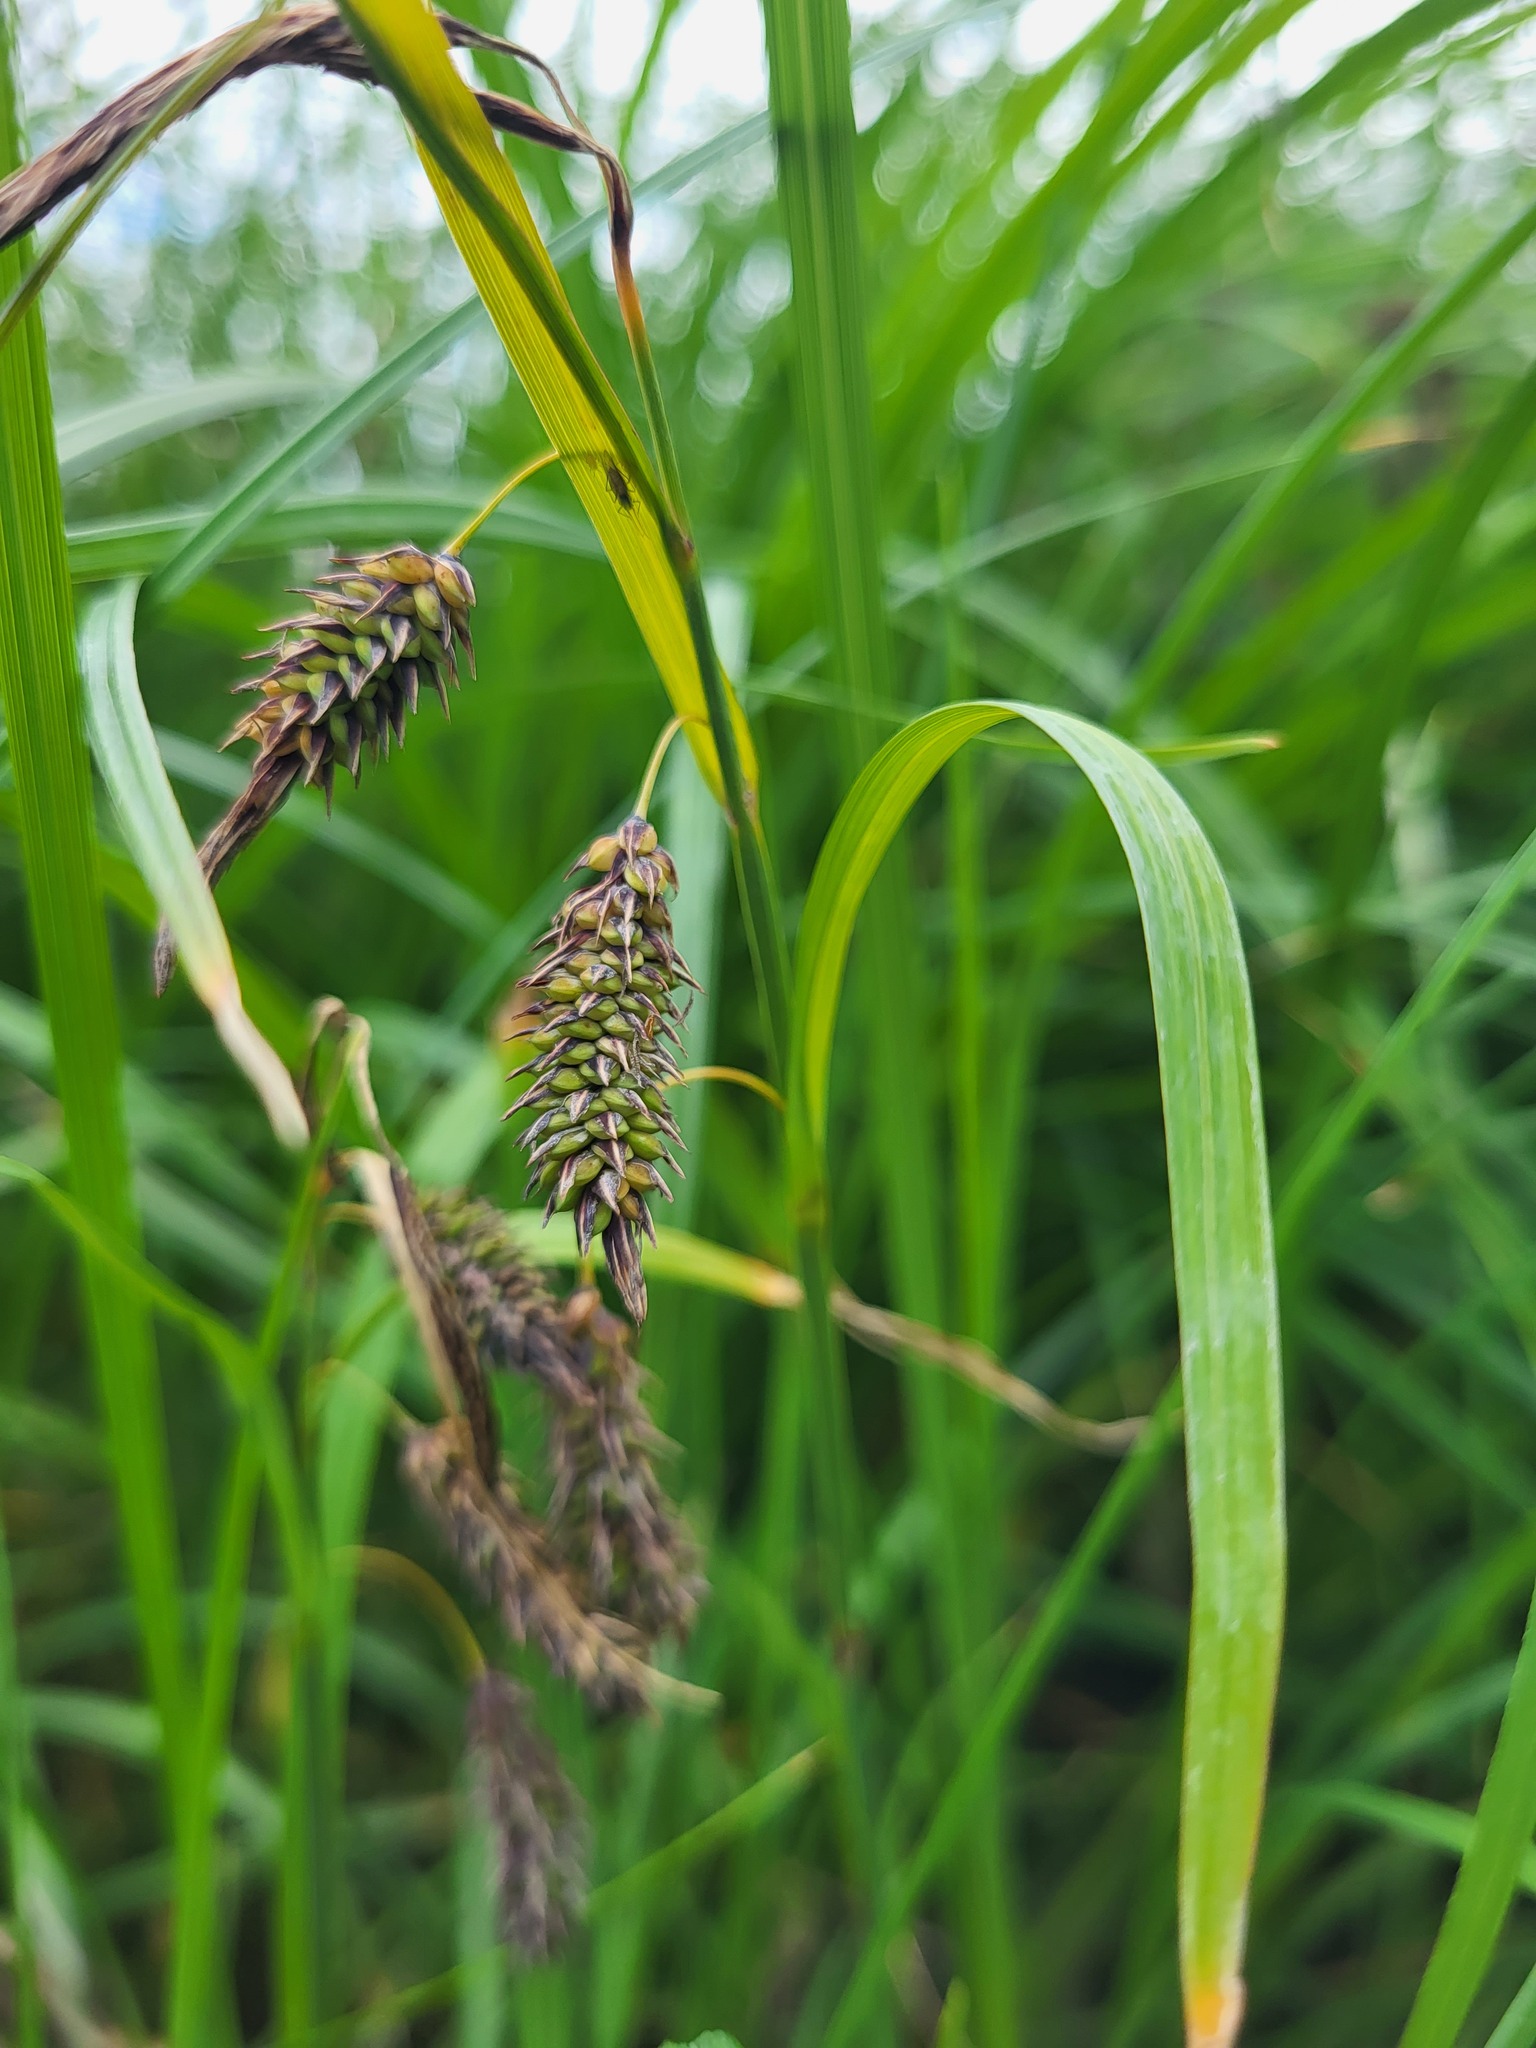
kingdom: Plantae
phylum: Tracheophyta
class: Liliopsida
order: Poales
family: Cyperaceae
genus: Carex
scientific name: Carex lyngbyei
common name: Lyngbye's sedge
